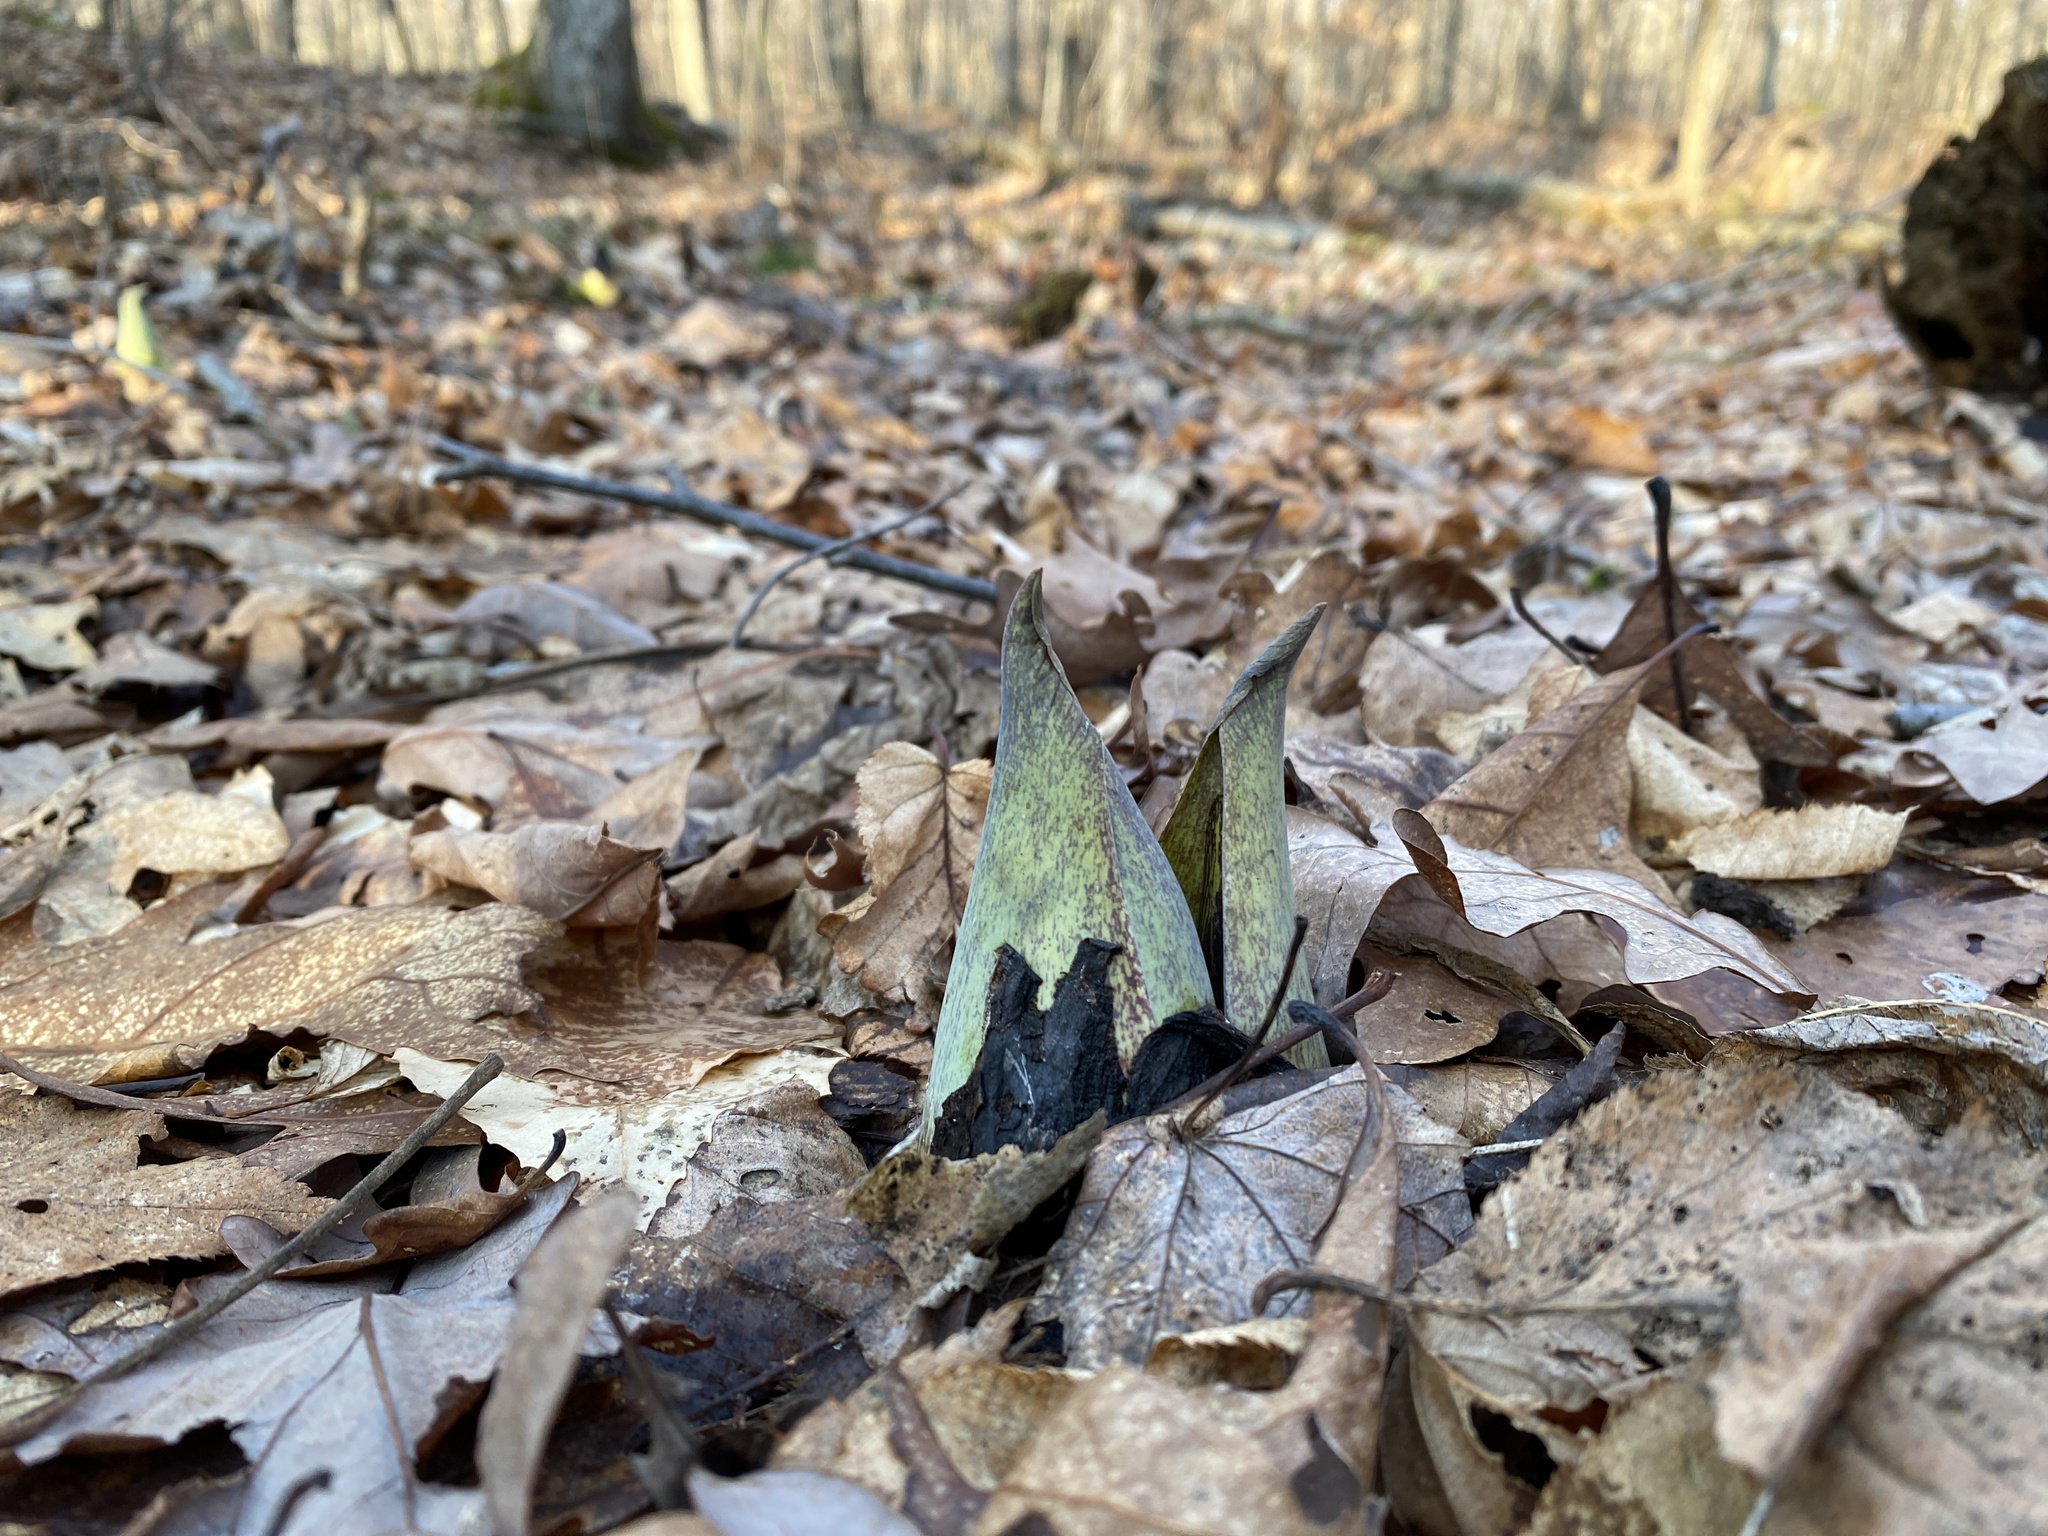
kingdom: Plantae
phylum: Tracheophyta
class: Liliopsida
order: Alismatales
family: Araceae
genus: Symplocarpus
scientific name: Symplocarpus foetidus
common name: Eastern skunk cabbage
